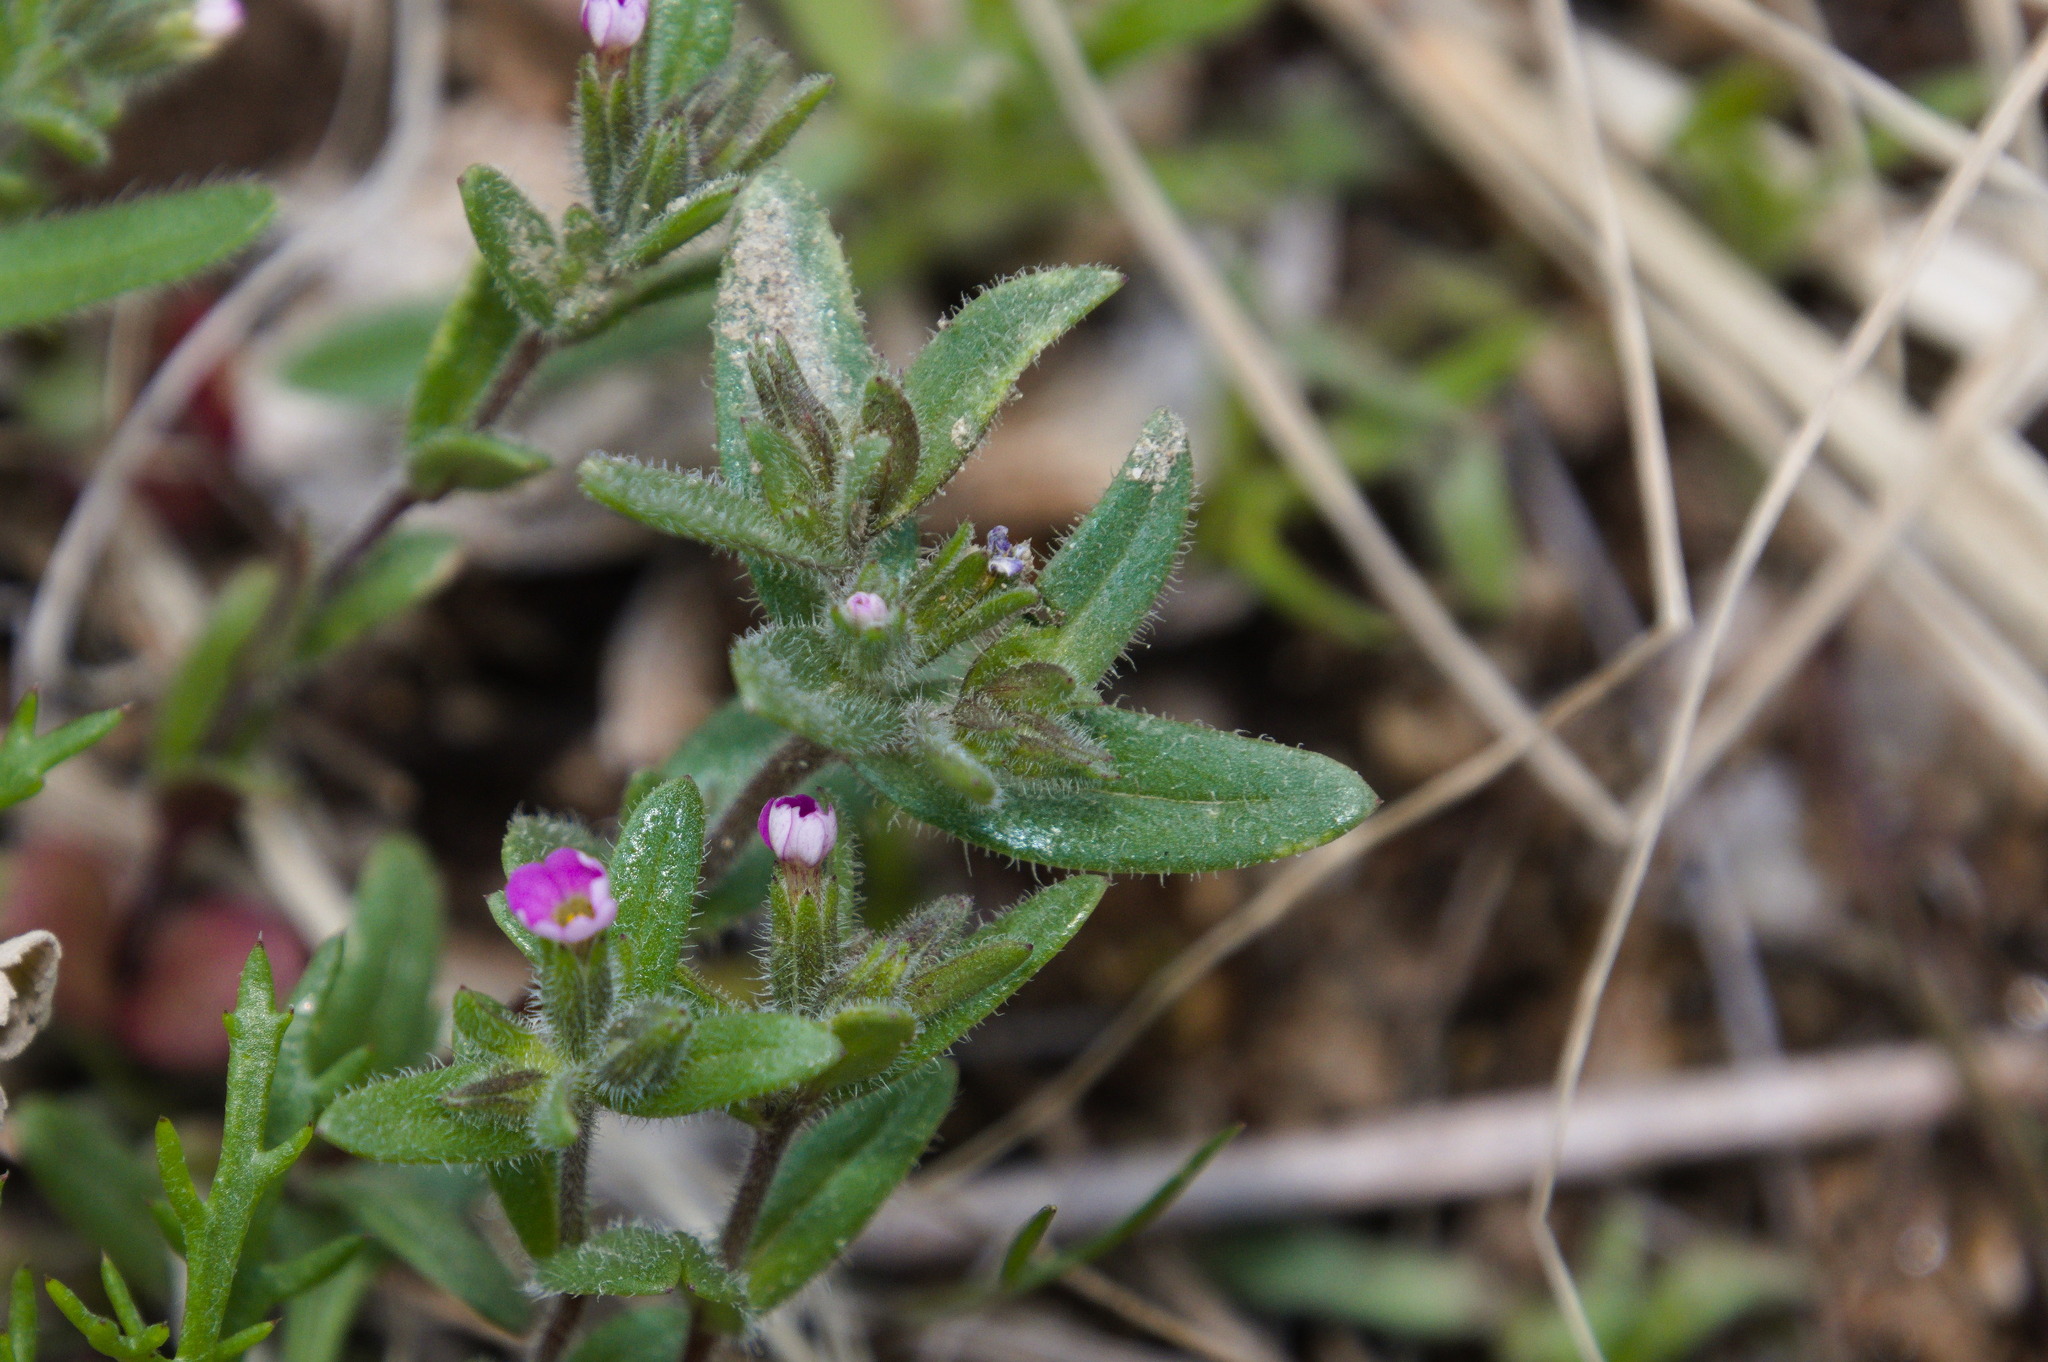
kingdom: Plantae
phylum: Tracheophyta
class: Magnoliopsida
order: Ericales
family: Polemoniaceae
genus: Phlox
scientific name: Phlox gracilis
